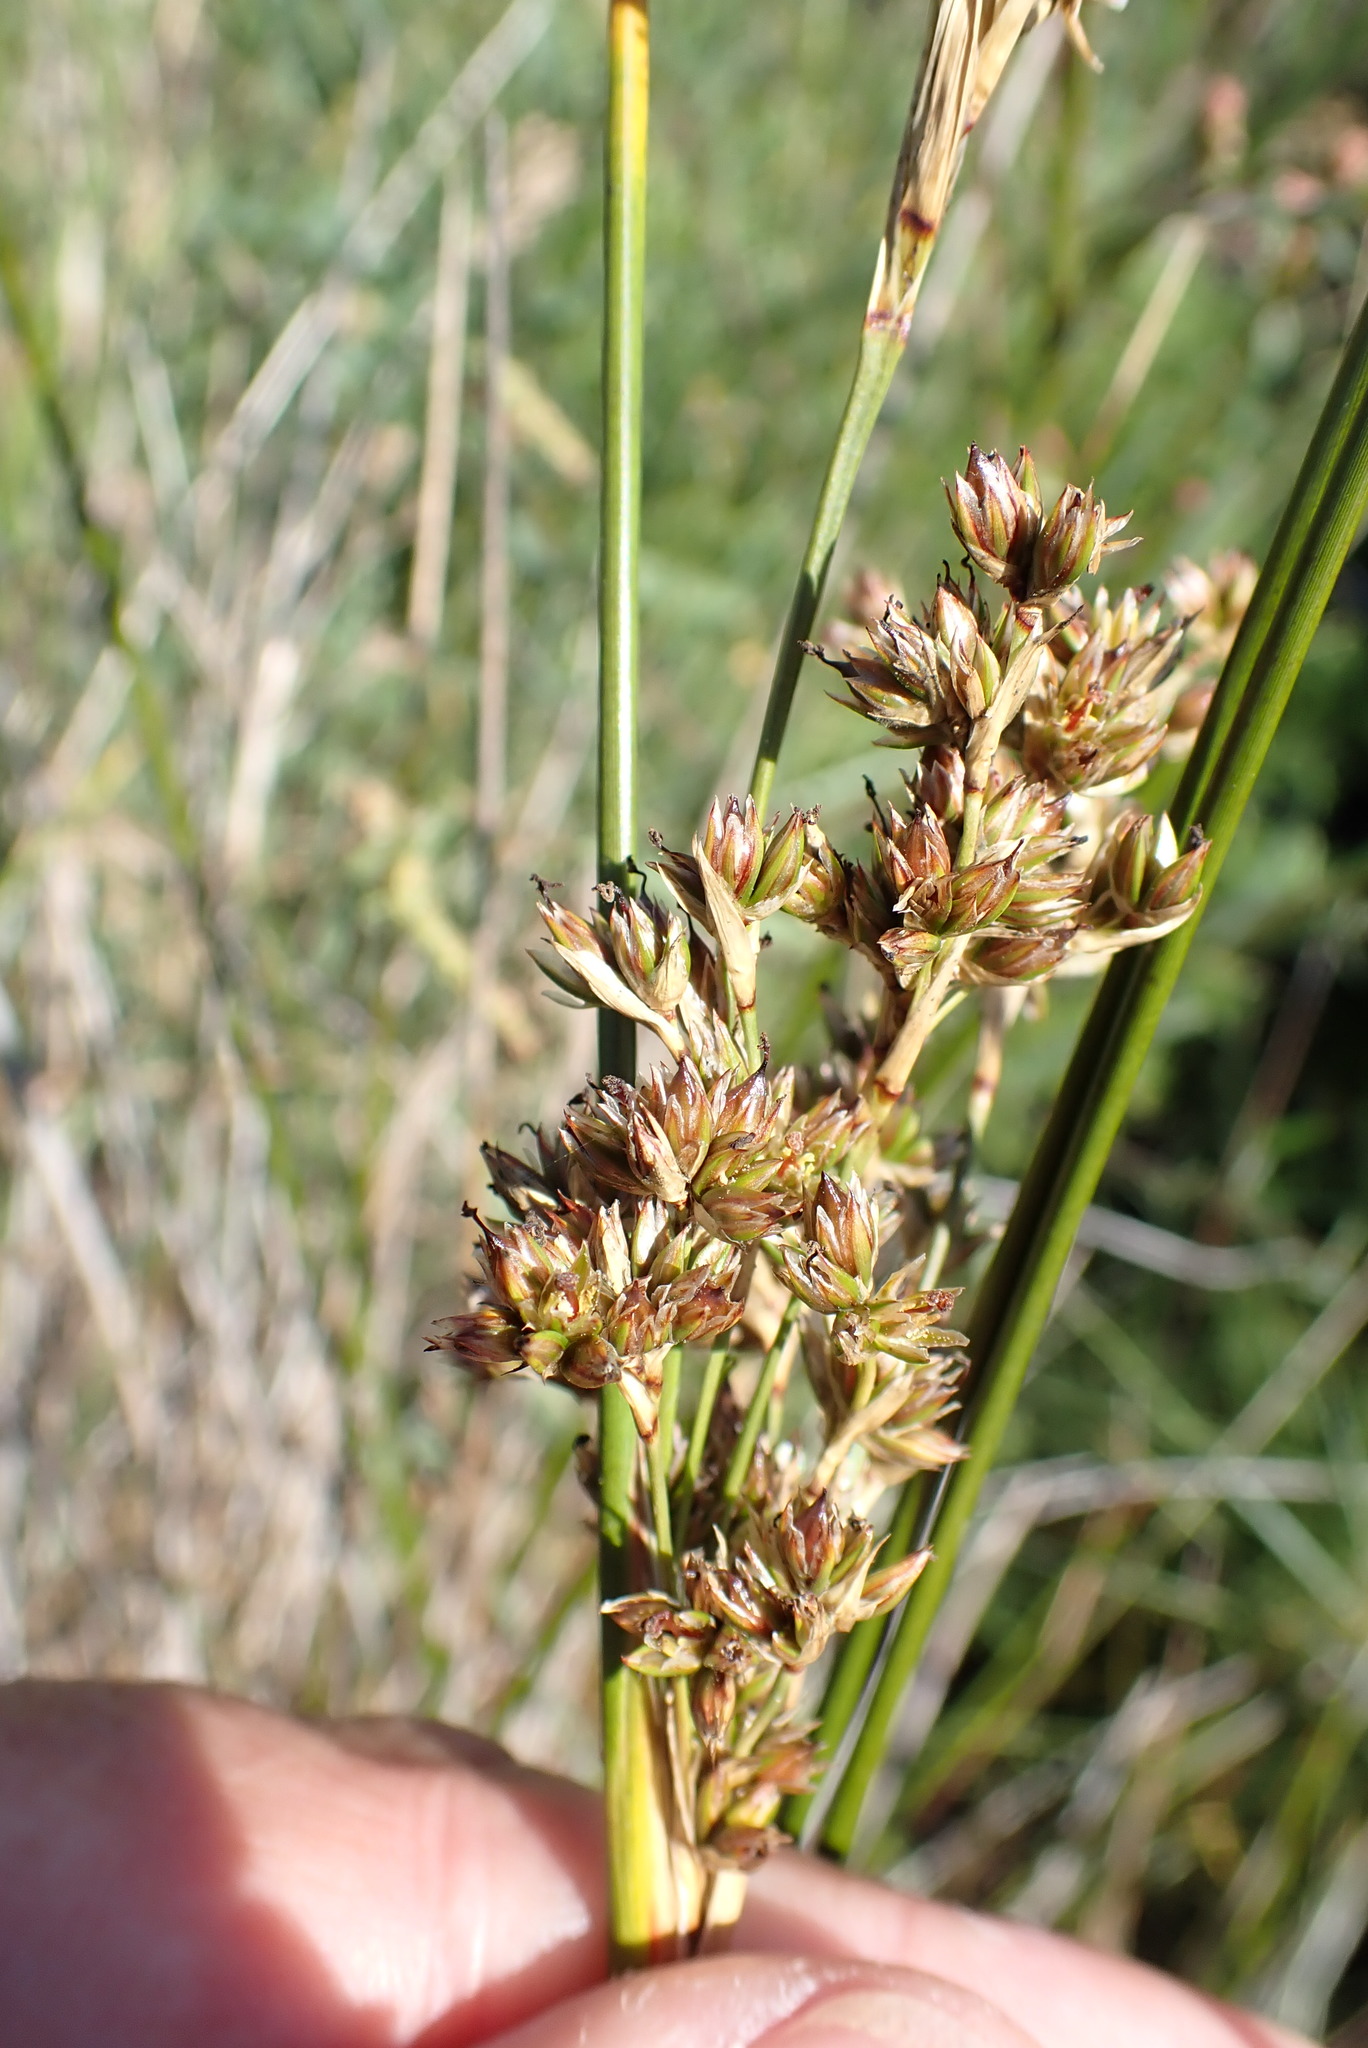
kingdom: Plantae
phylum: Tracheophyta
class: Liliopsida
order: Poales
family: Juncaceae
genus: Juncus
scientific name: Juncus maritimus
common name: Sea rush
